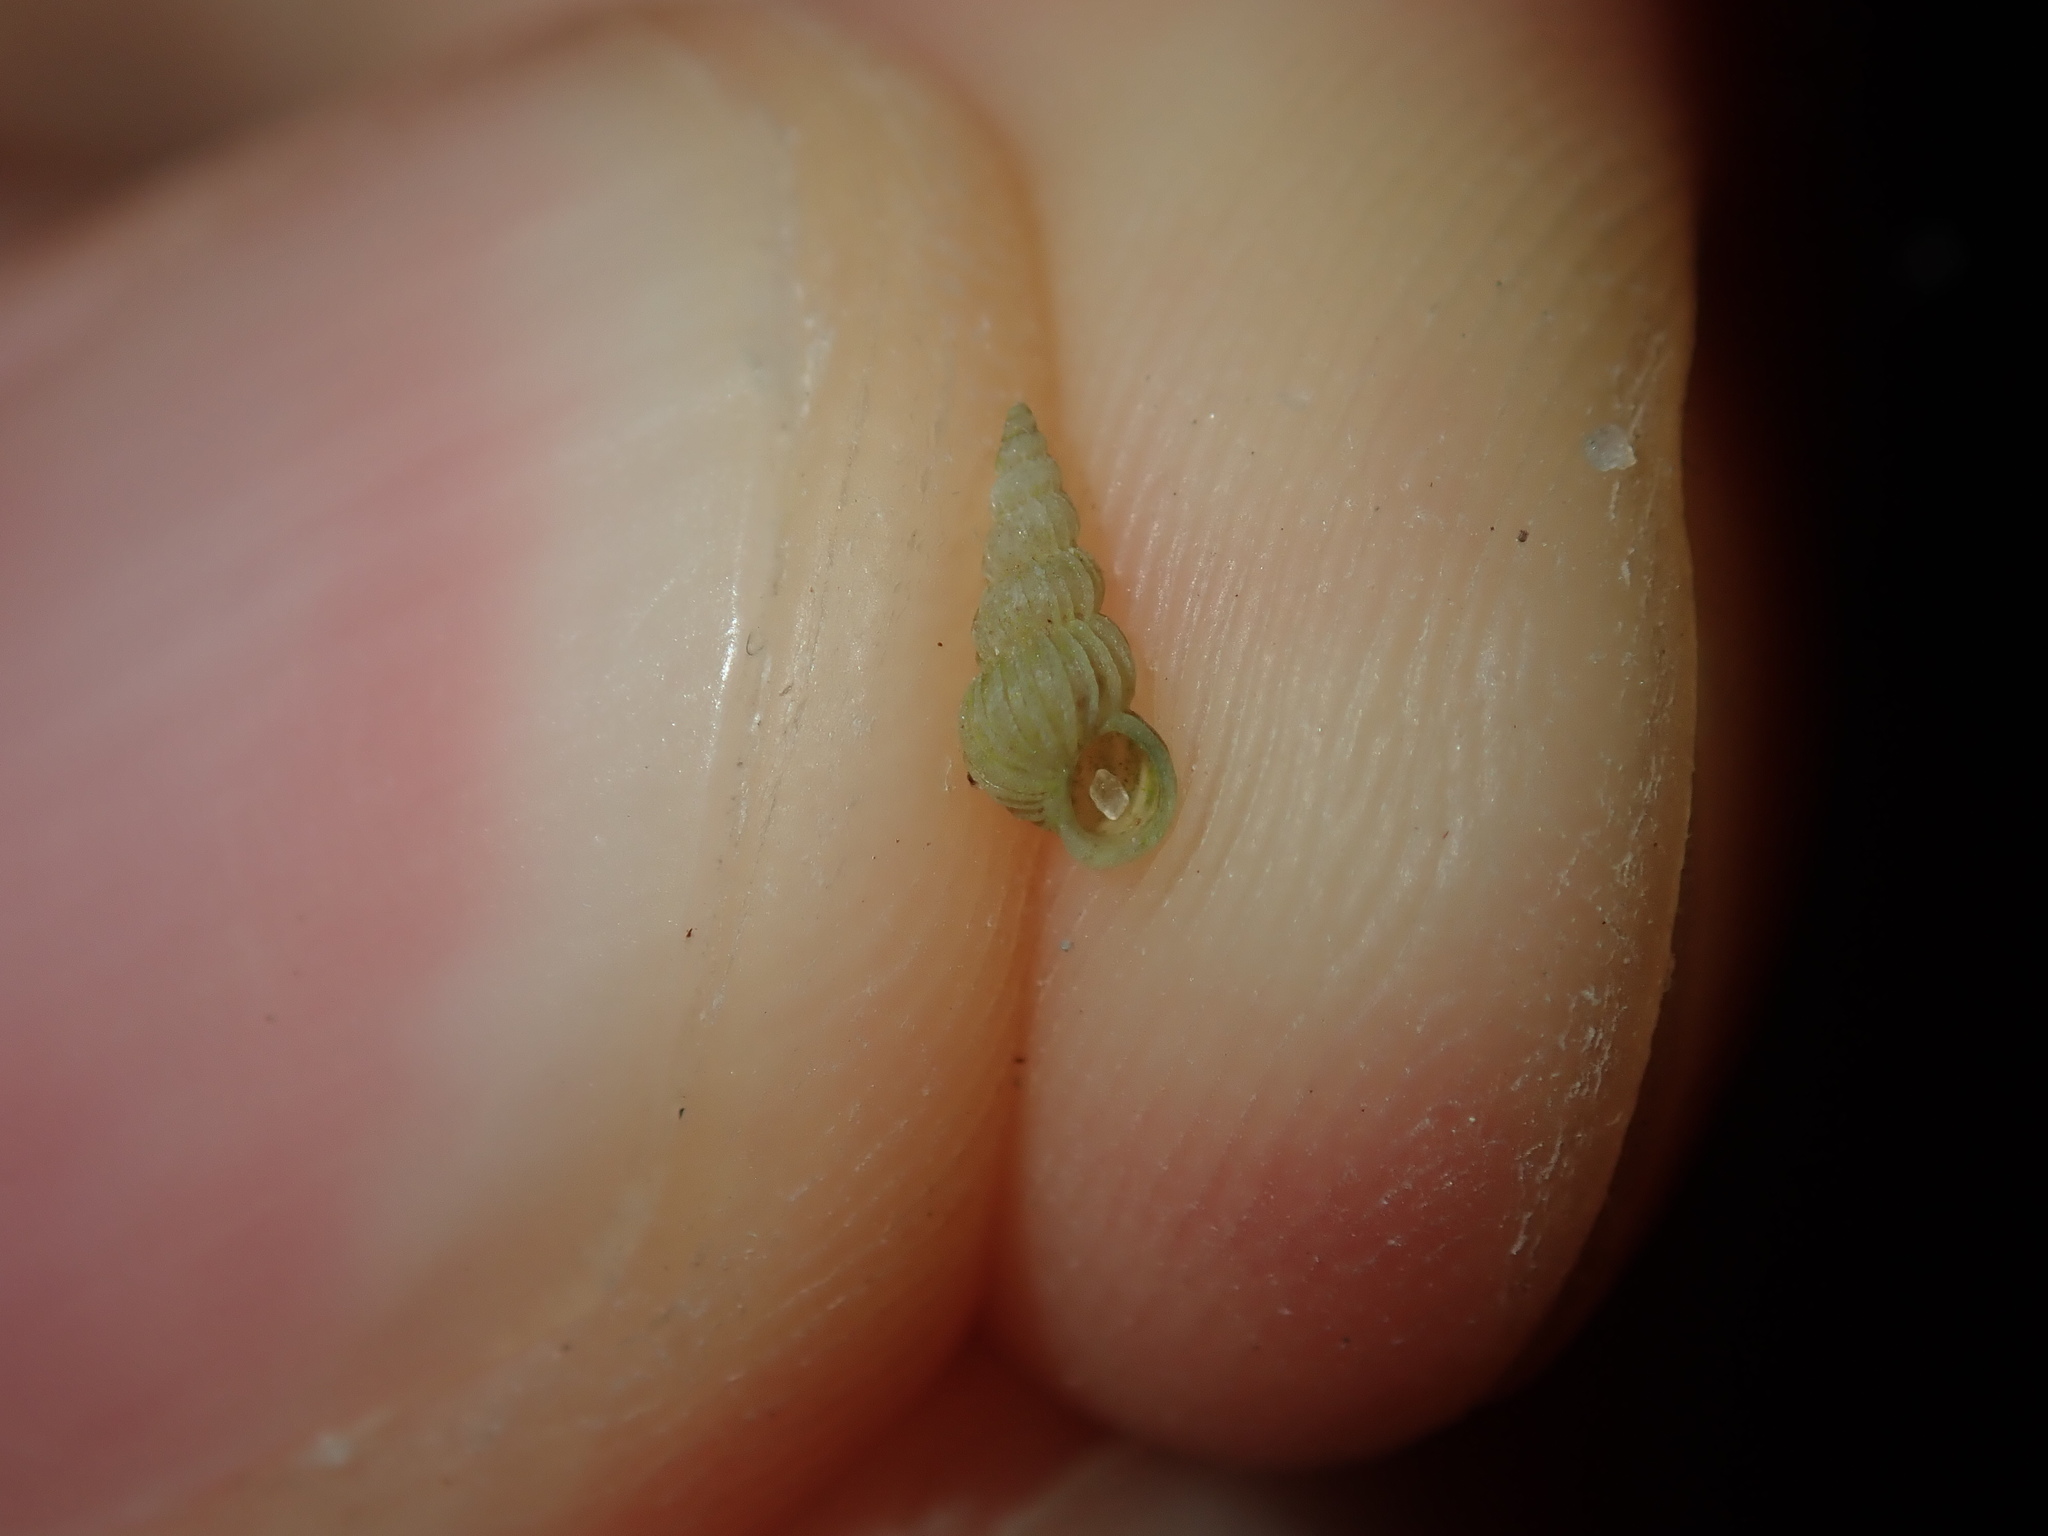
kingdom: Animalia
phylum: Mollusca
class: Gastropoda
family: Epitoniidae
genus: Epitonium
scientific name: Epitonium jukesianum
